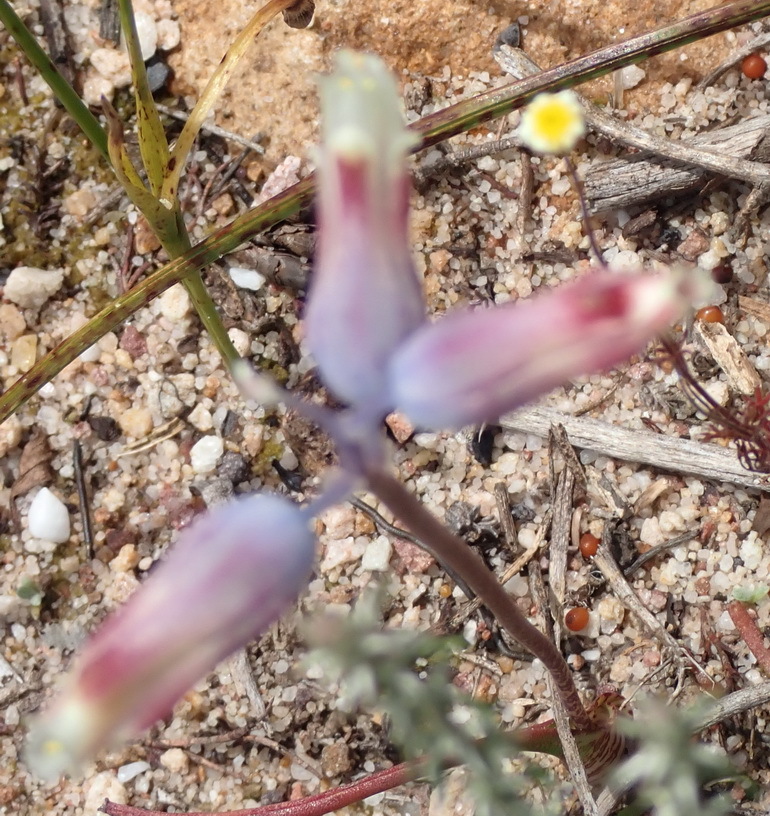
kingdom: Plantae
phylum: Tracheophyta
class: Liliopsida
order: Asparagales
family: Asparagaceae
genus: Lachenalia
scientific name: Lachenalia unifolia
